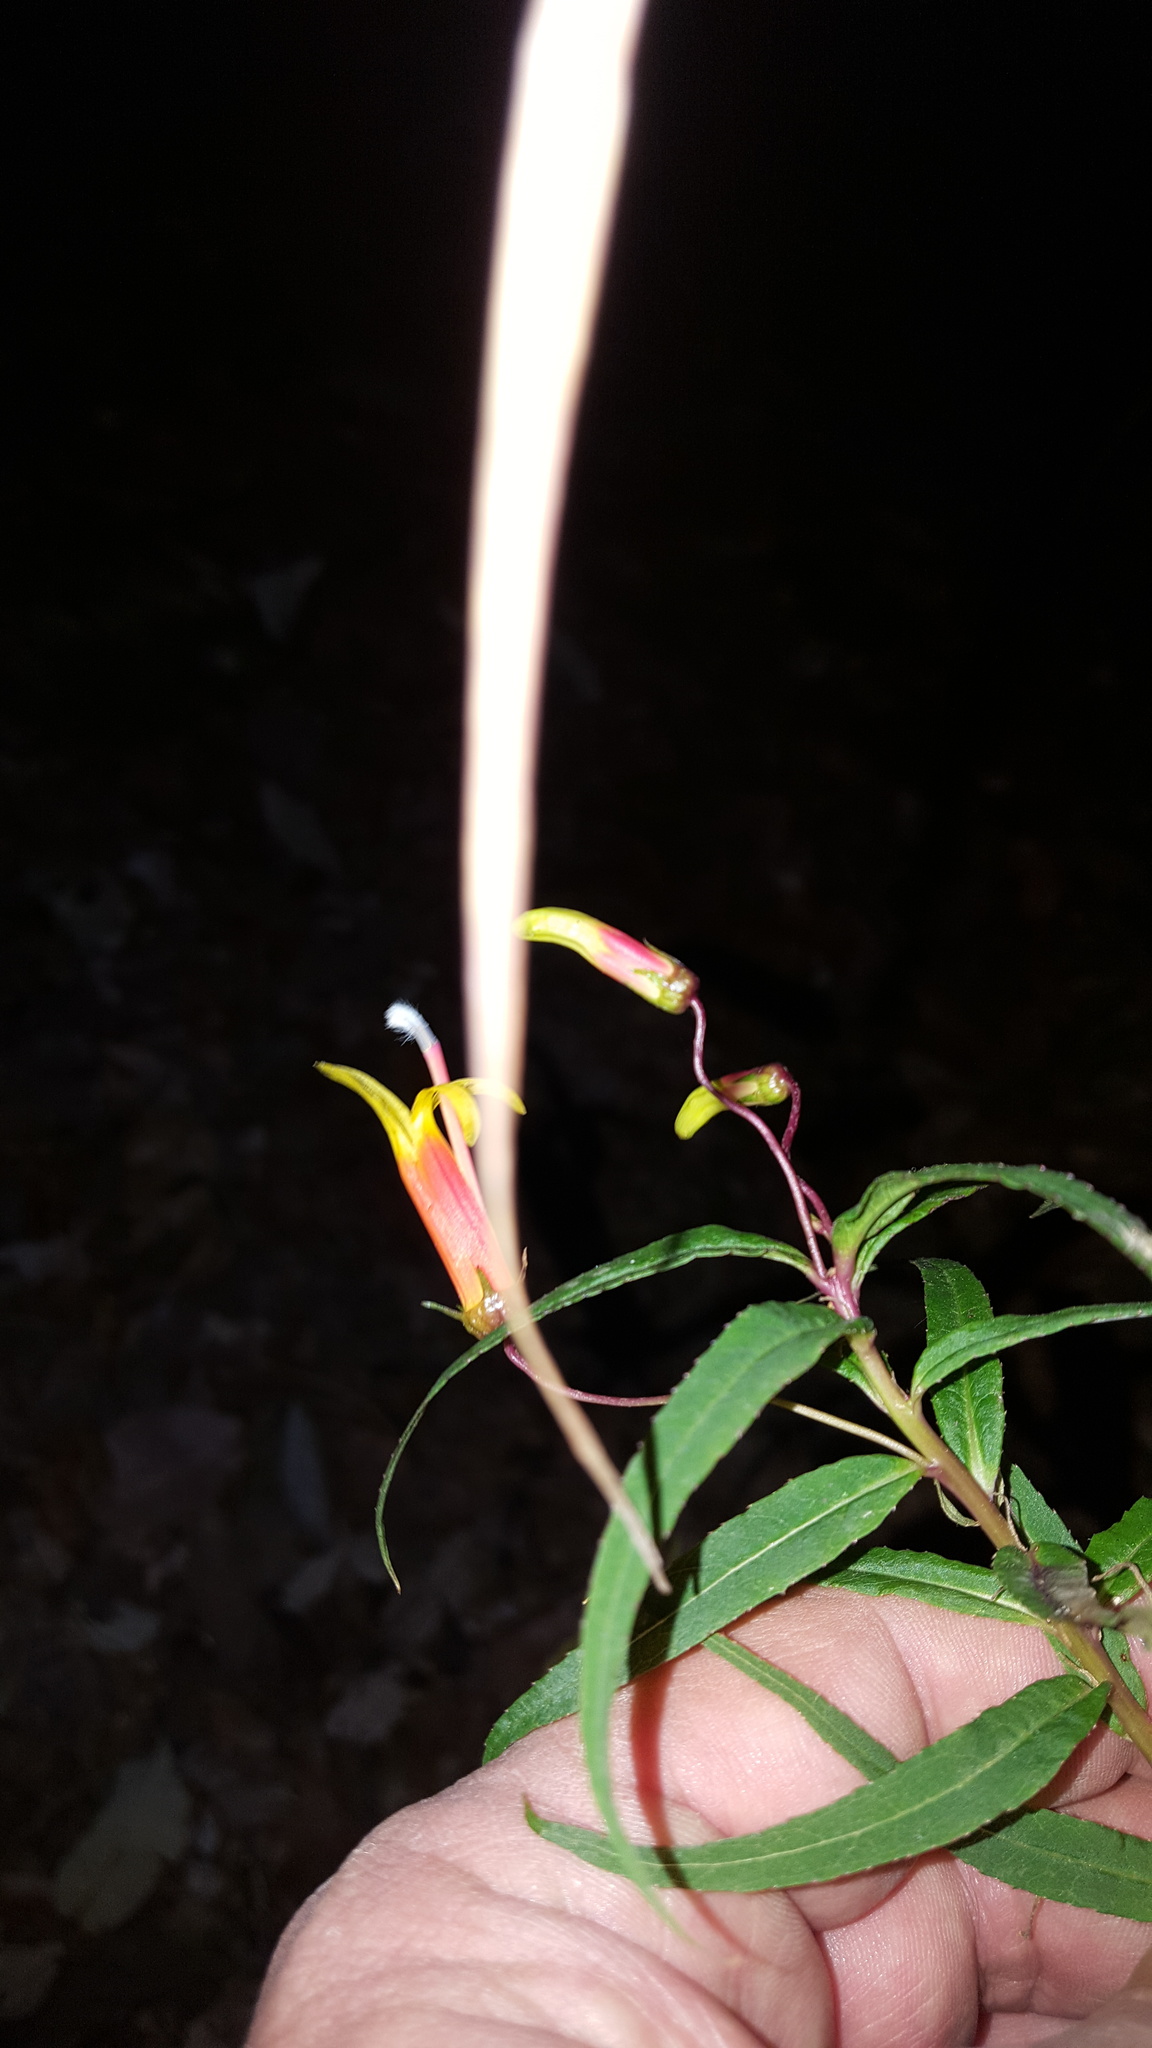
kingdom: Plantae
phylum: Tracheophyta
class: Magnoliopsida
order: Asterales
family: Campanulaceae
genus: Lobelia
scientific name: Lobelia laxiflora
